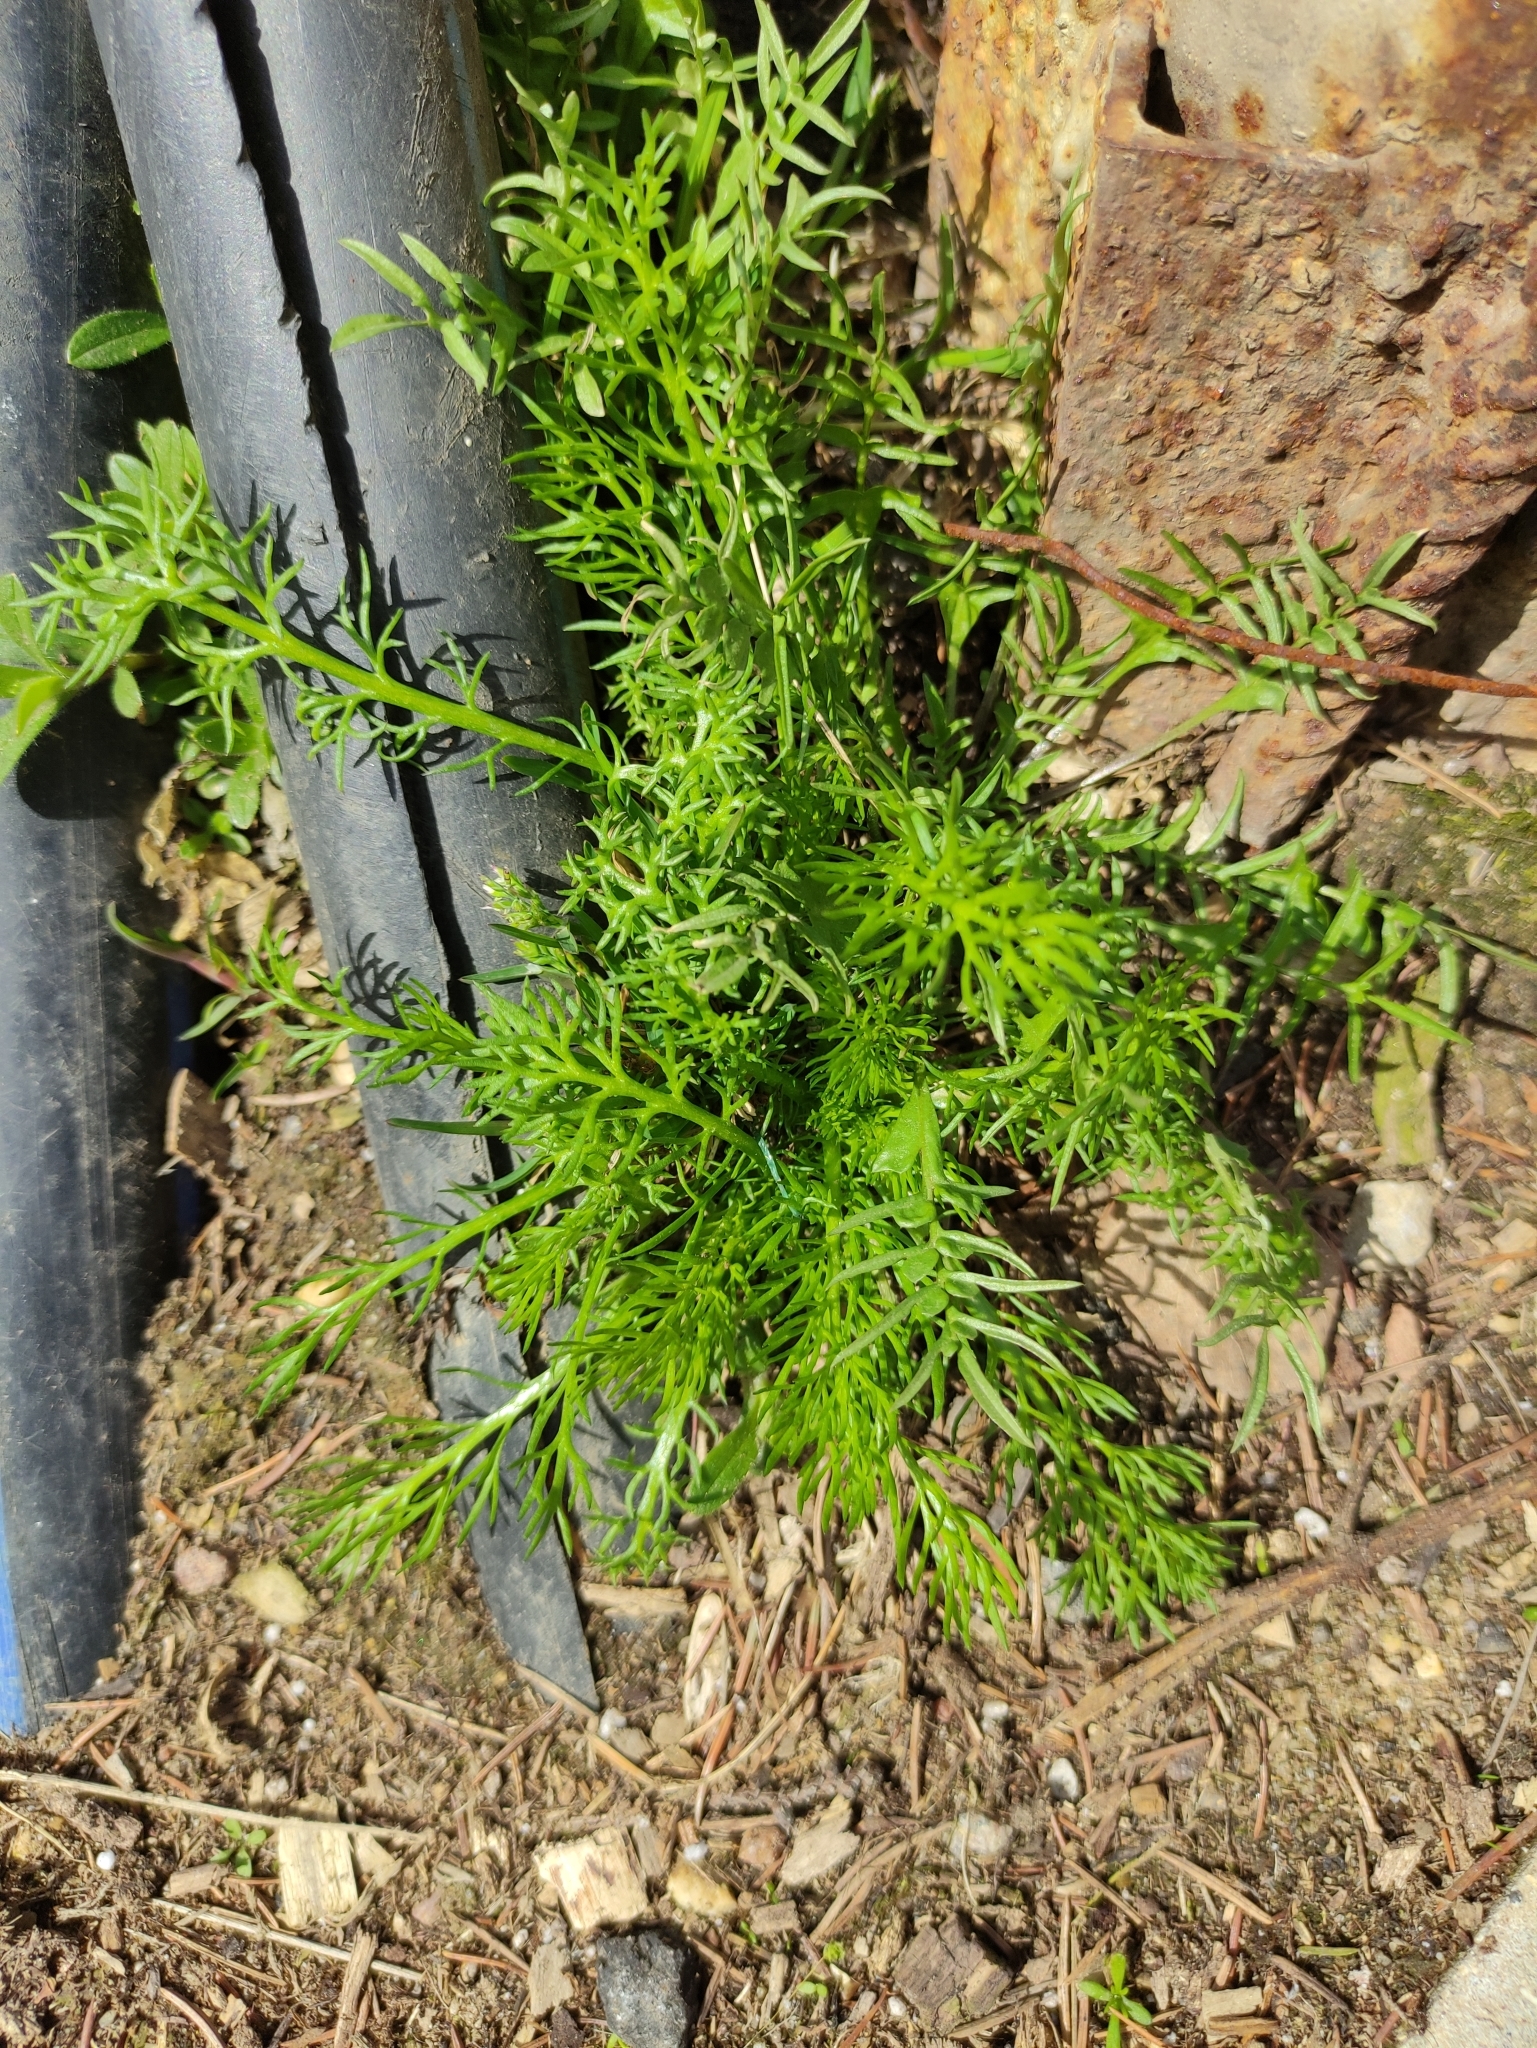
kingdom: Plantae
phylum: Tracheophyta
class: Magnoliopsida
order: Asterales
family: Asteraceae
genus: Tripleurospermum
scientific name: Tripleurospermum inodorum
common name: Scentless mayweed
